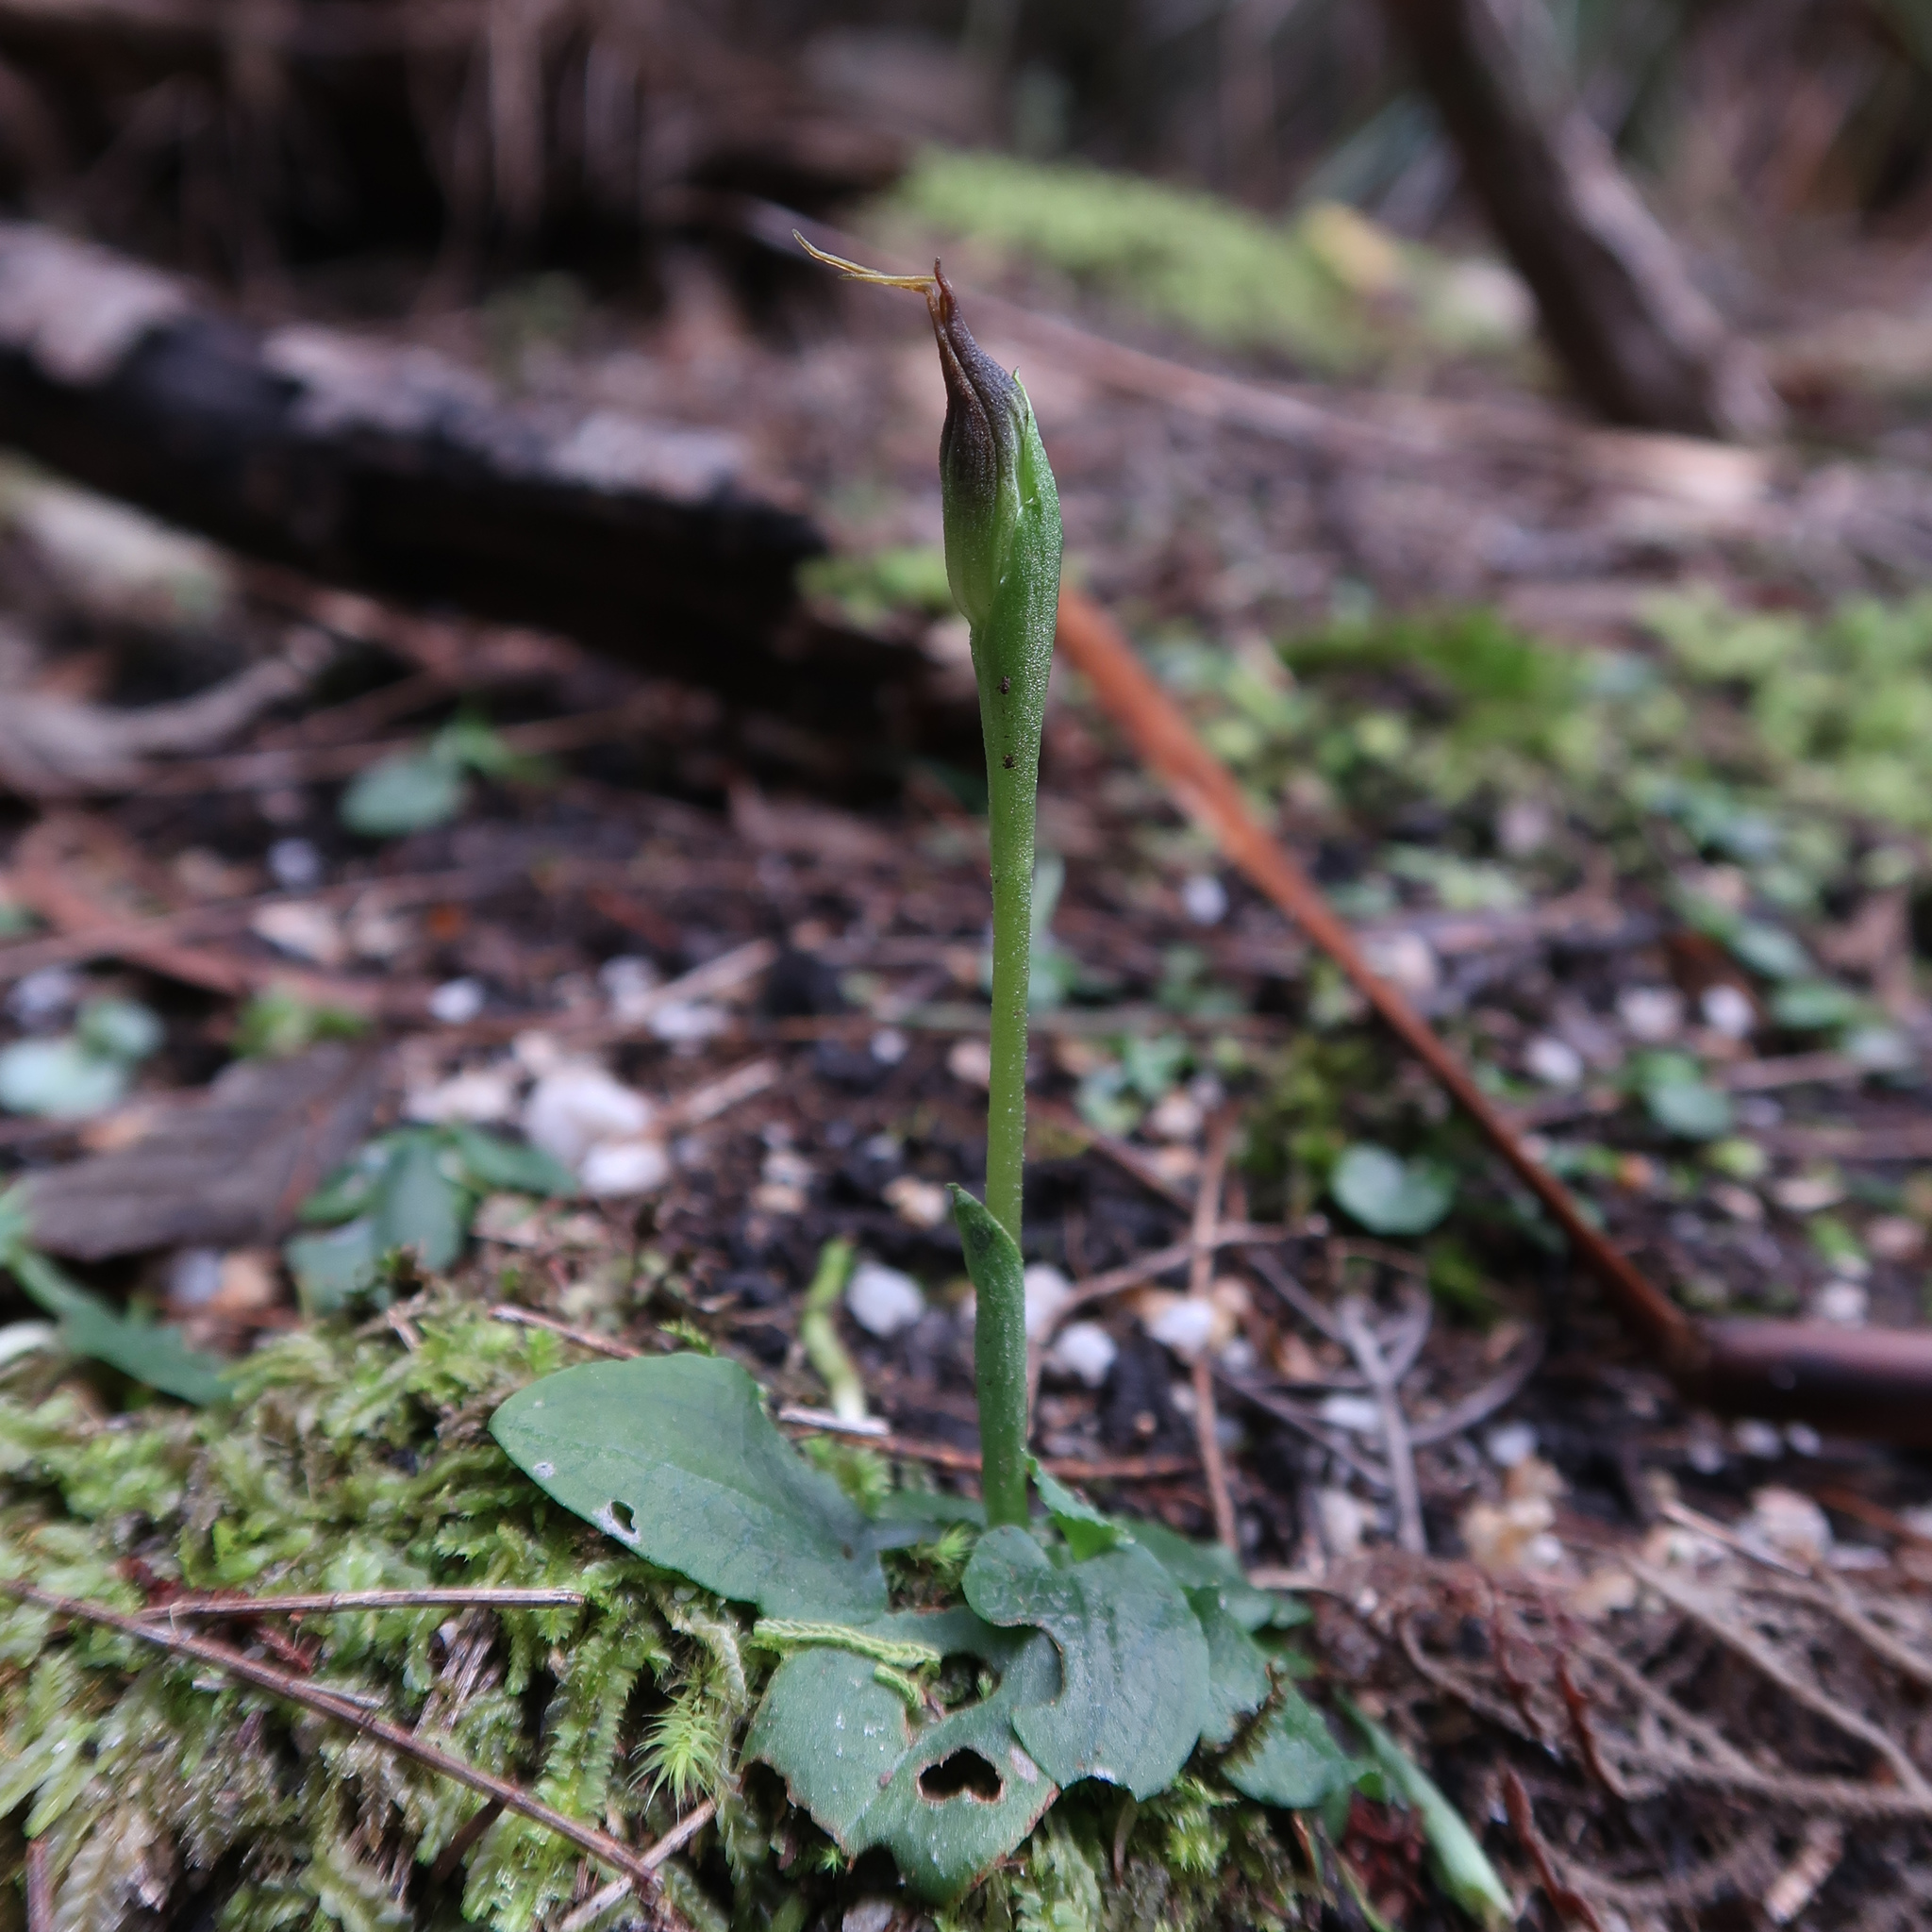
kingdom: Plantae
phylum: Tracheophyta
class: Liliopsida
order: Asparagales
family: Orchidaceae
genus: Pterostylis
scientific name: Pterostylis pedunculata
